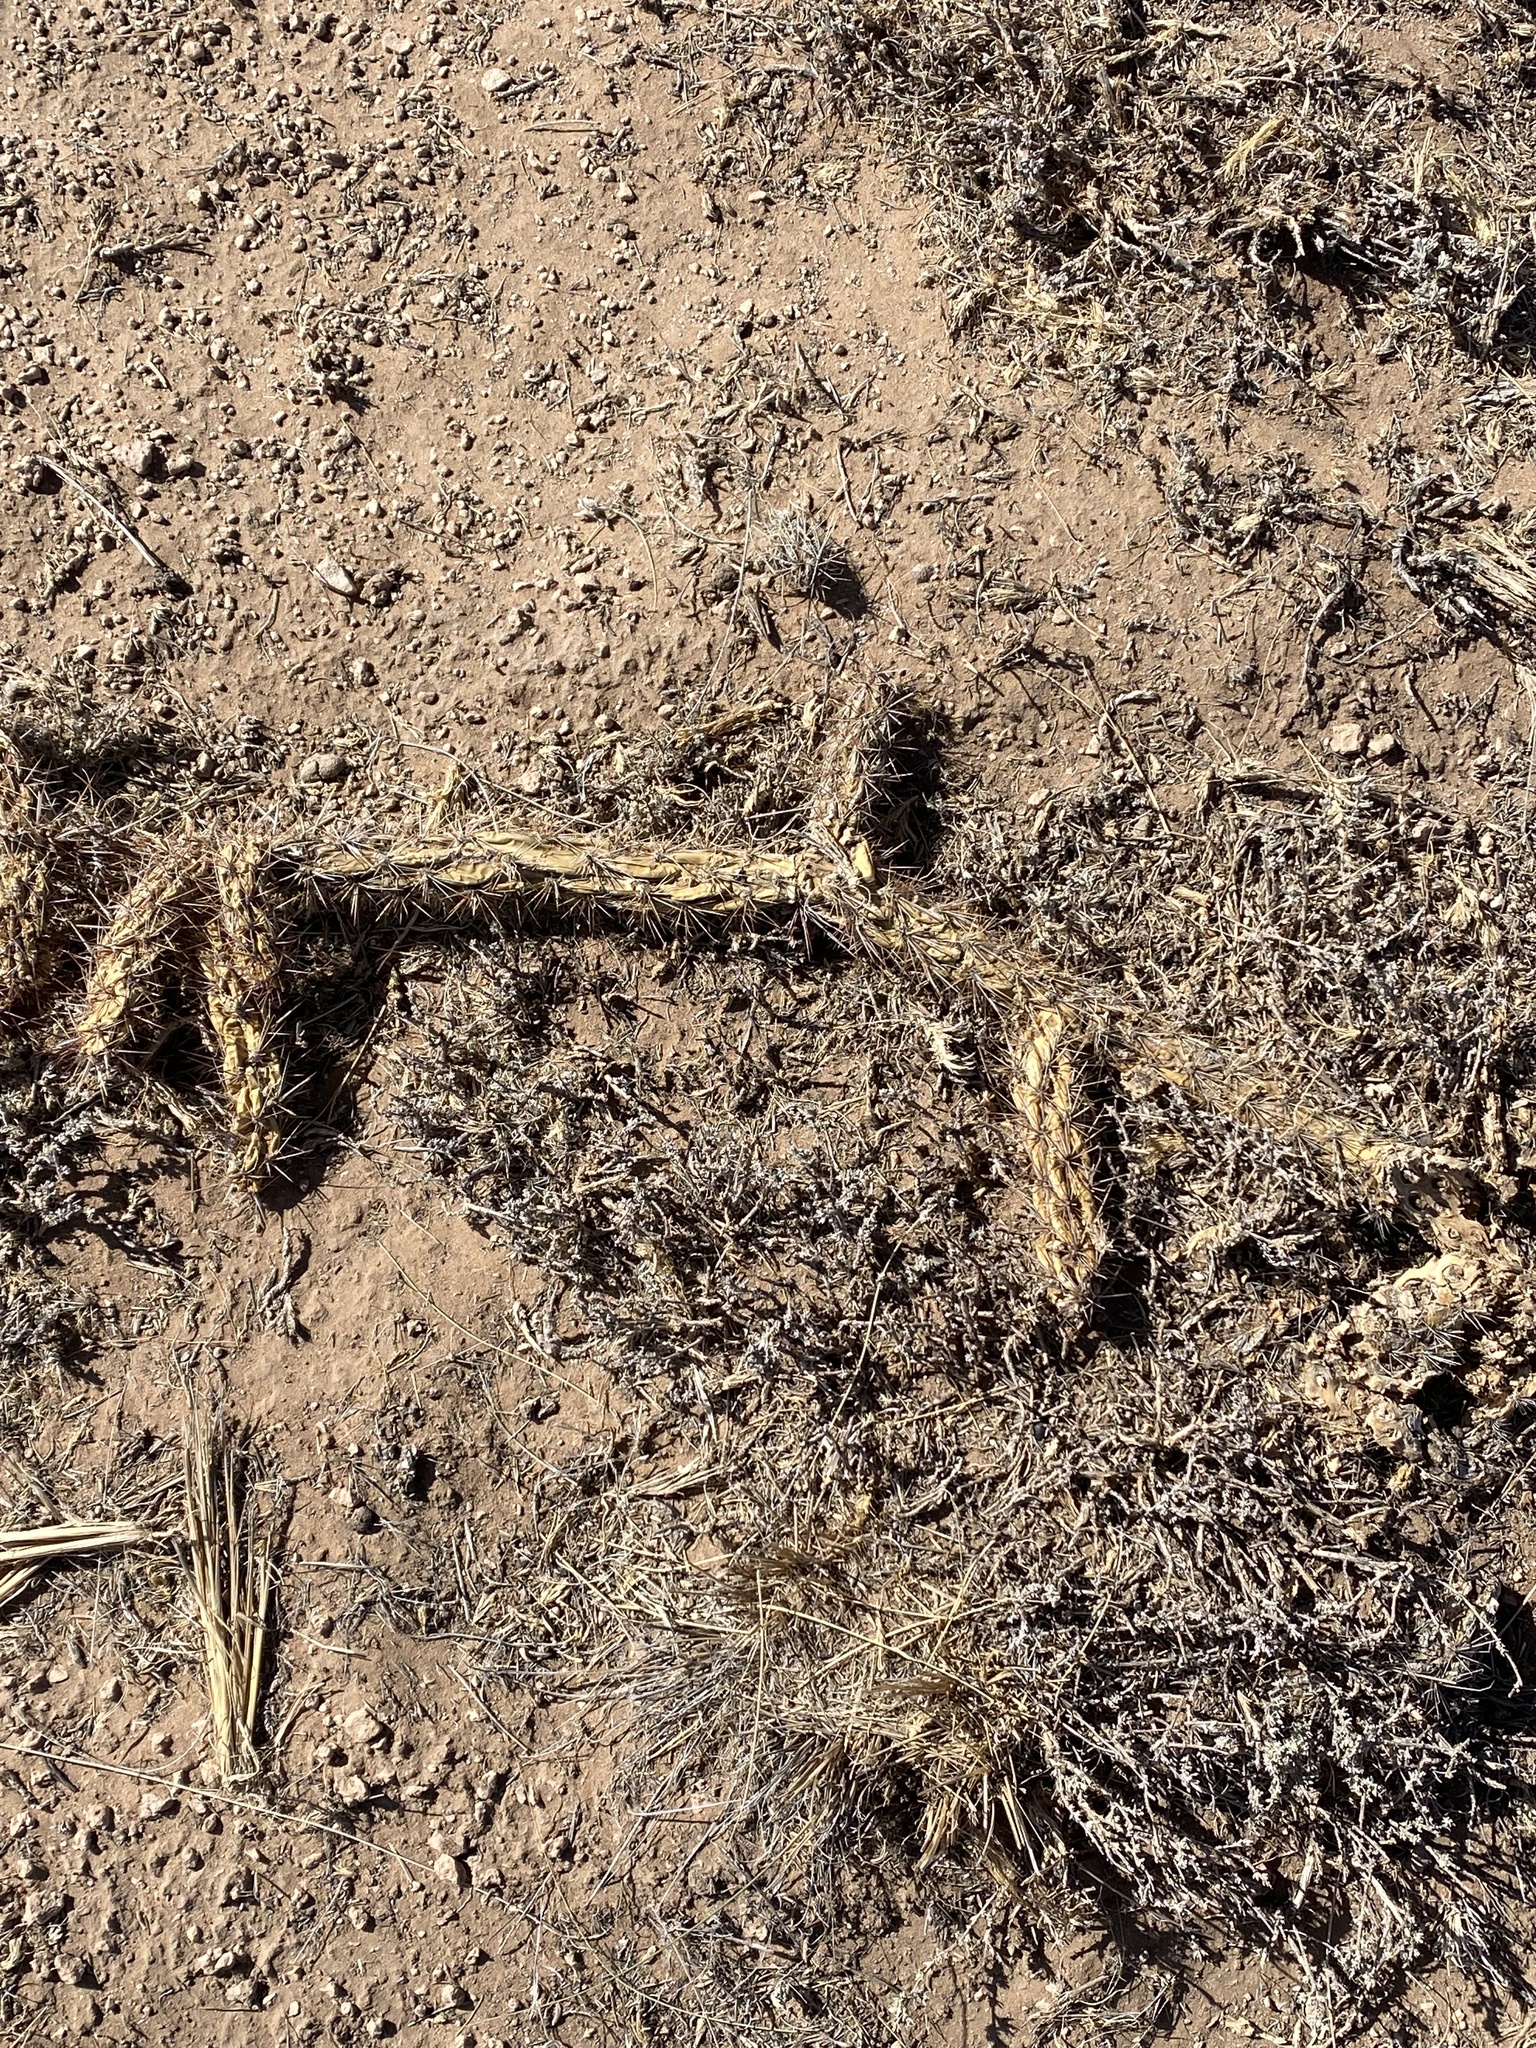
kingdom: Plantae
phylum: Tracheophyta
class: Magnoliopsida
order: Caryophyllales
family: Cactaceae
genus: Cylindropuntia
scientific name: Cylindropuntia imbricata
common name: Candelabrum cactus
